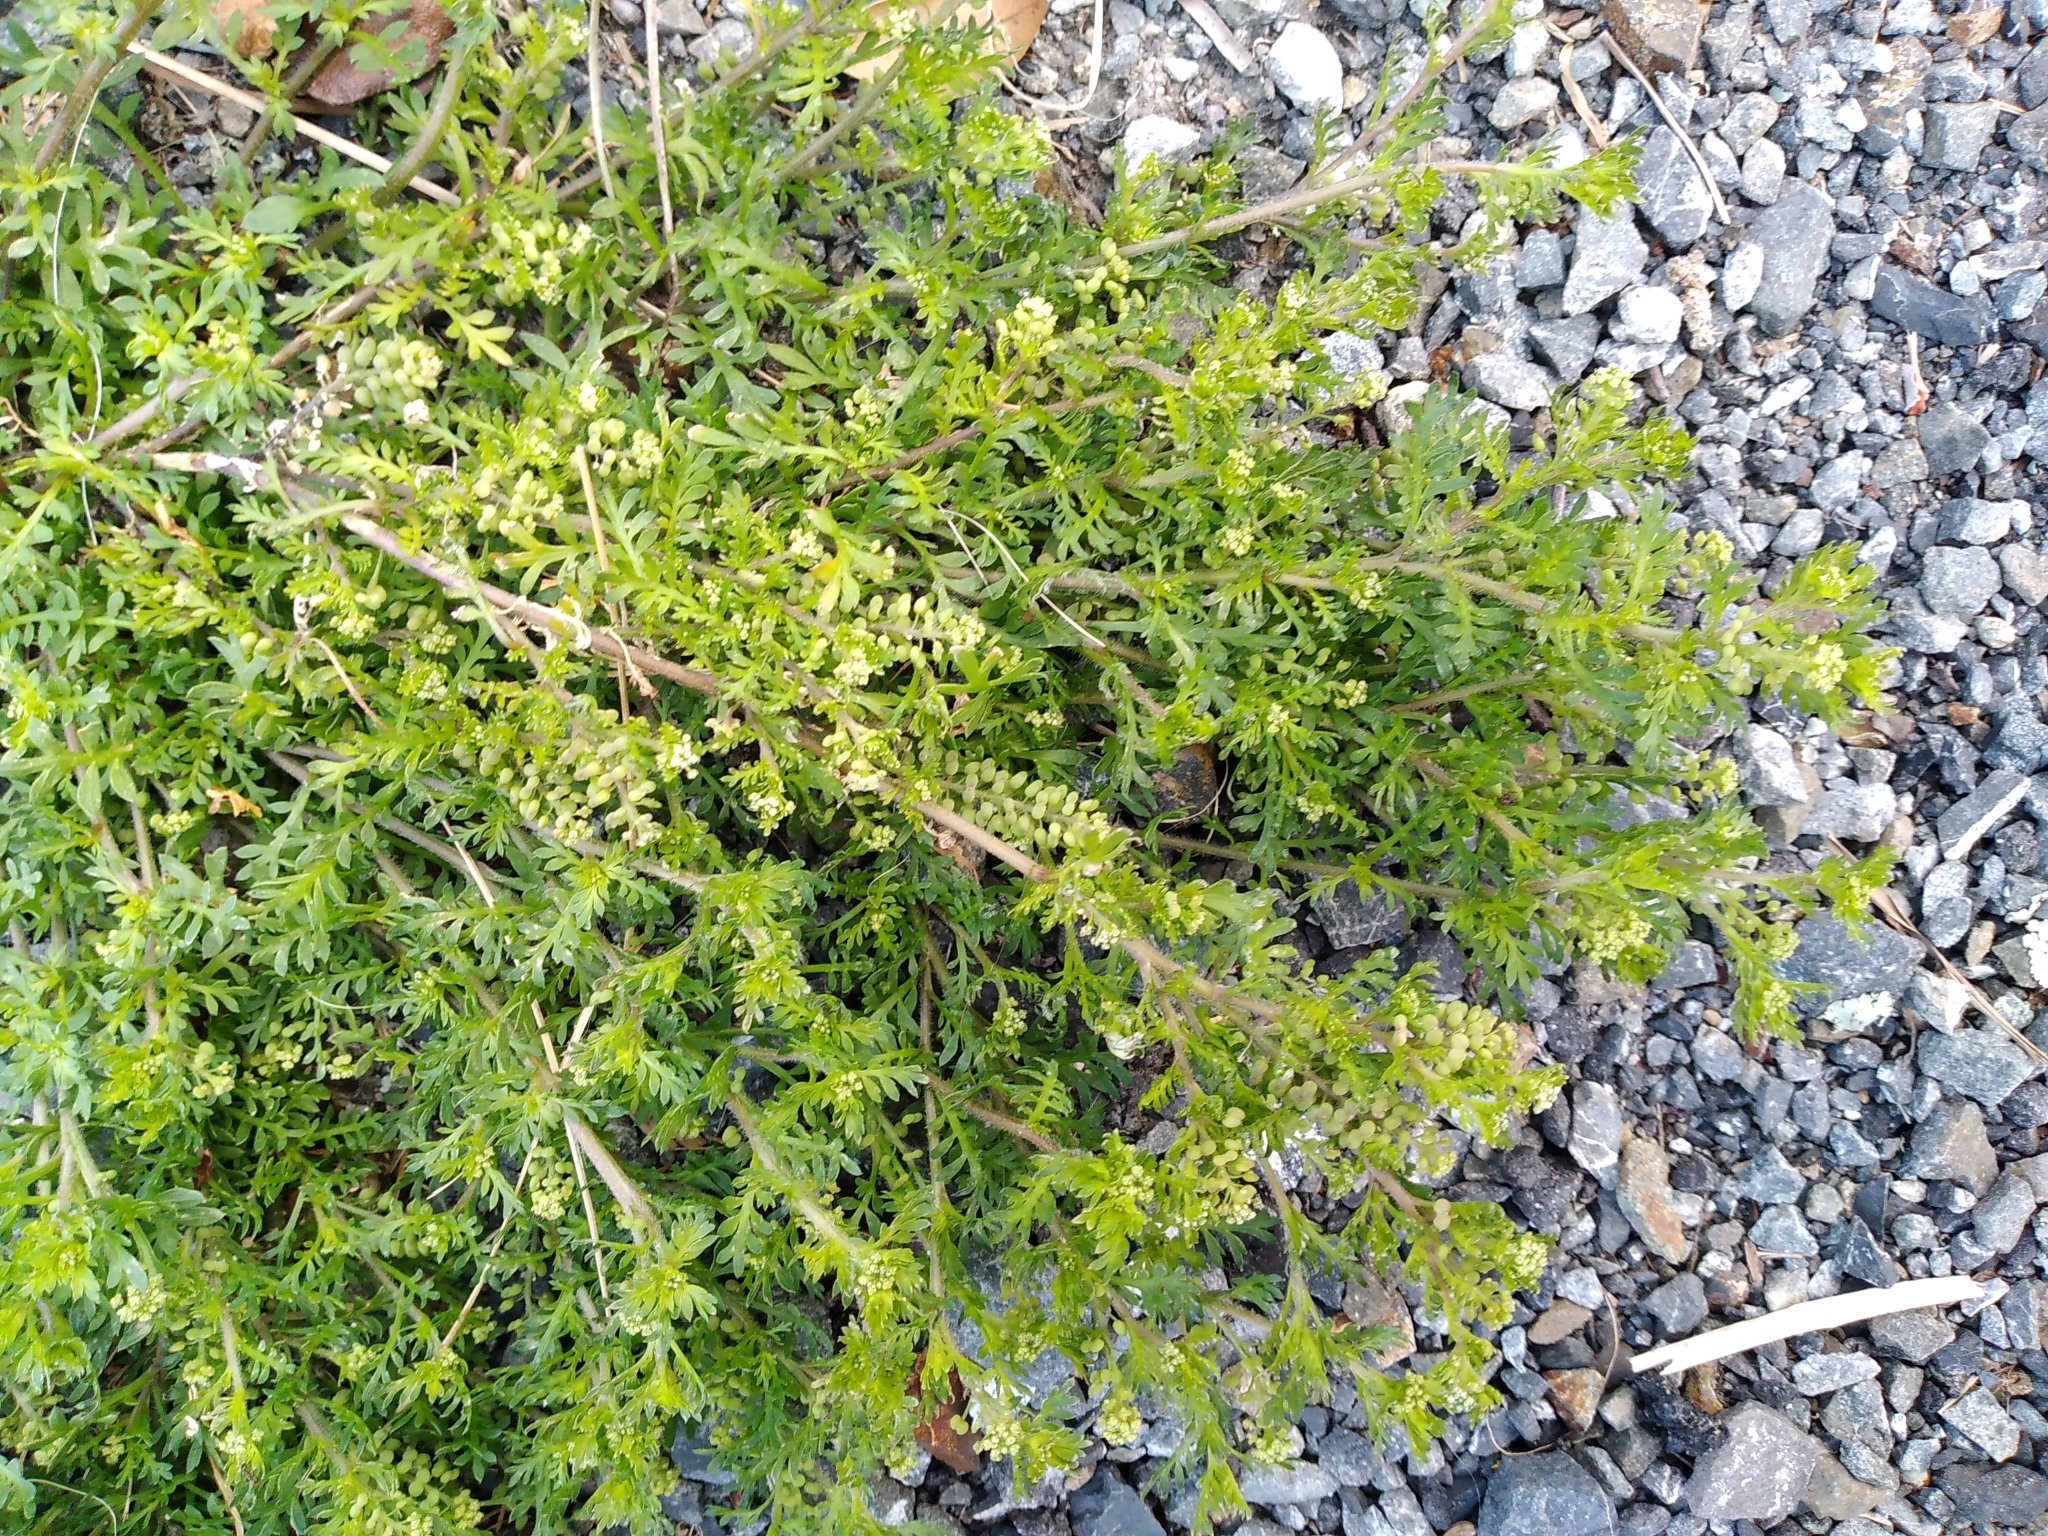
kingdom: Plantae
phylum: Tracheophyta
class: Magnoliopsida
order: Brassicales
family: Brassicaceae
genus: Lepidium
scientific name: Lepidium didymum
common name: Lesser swinecress
